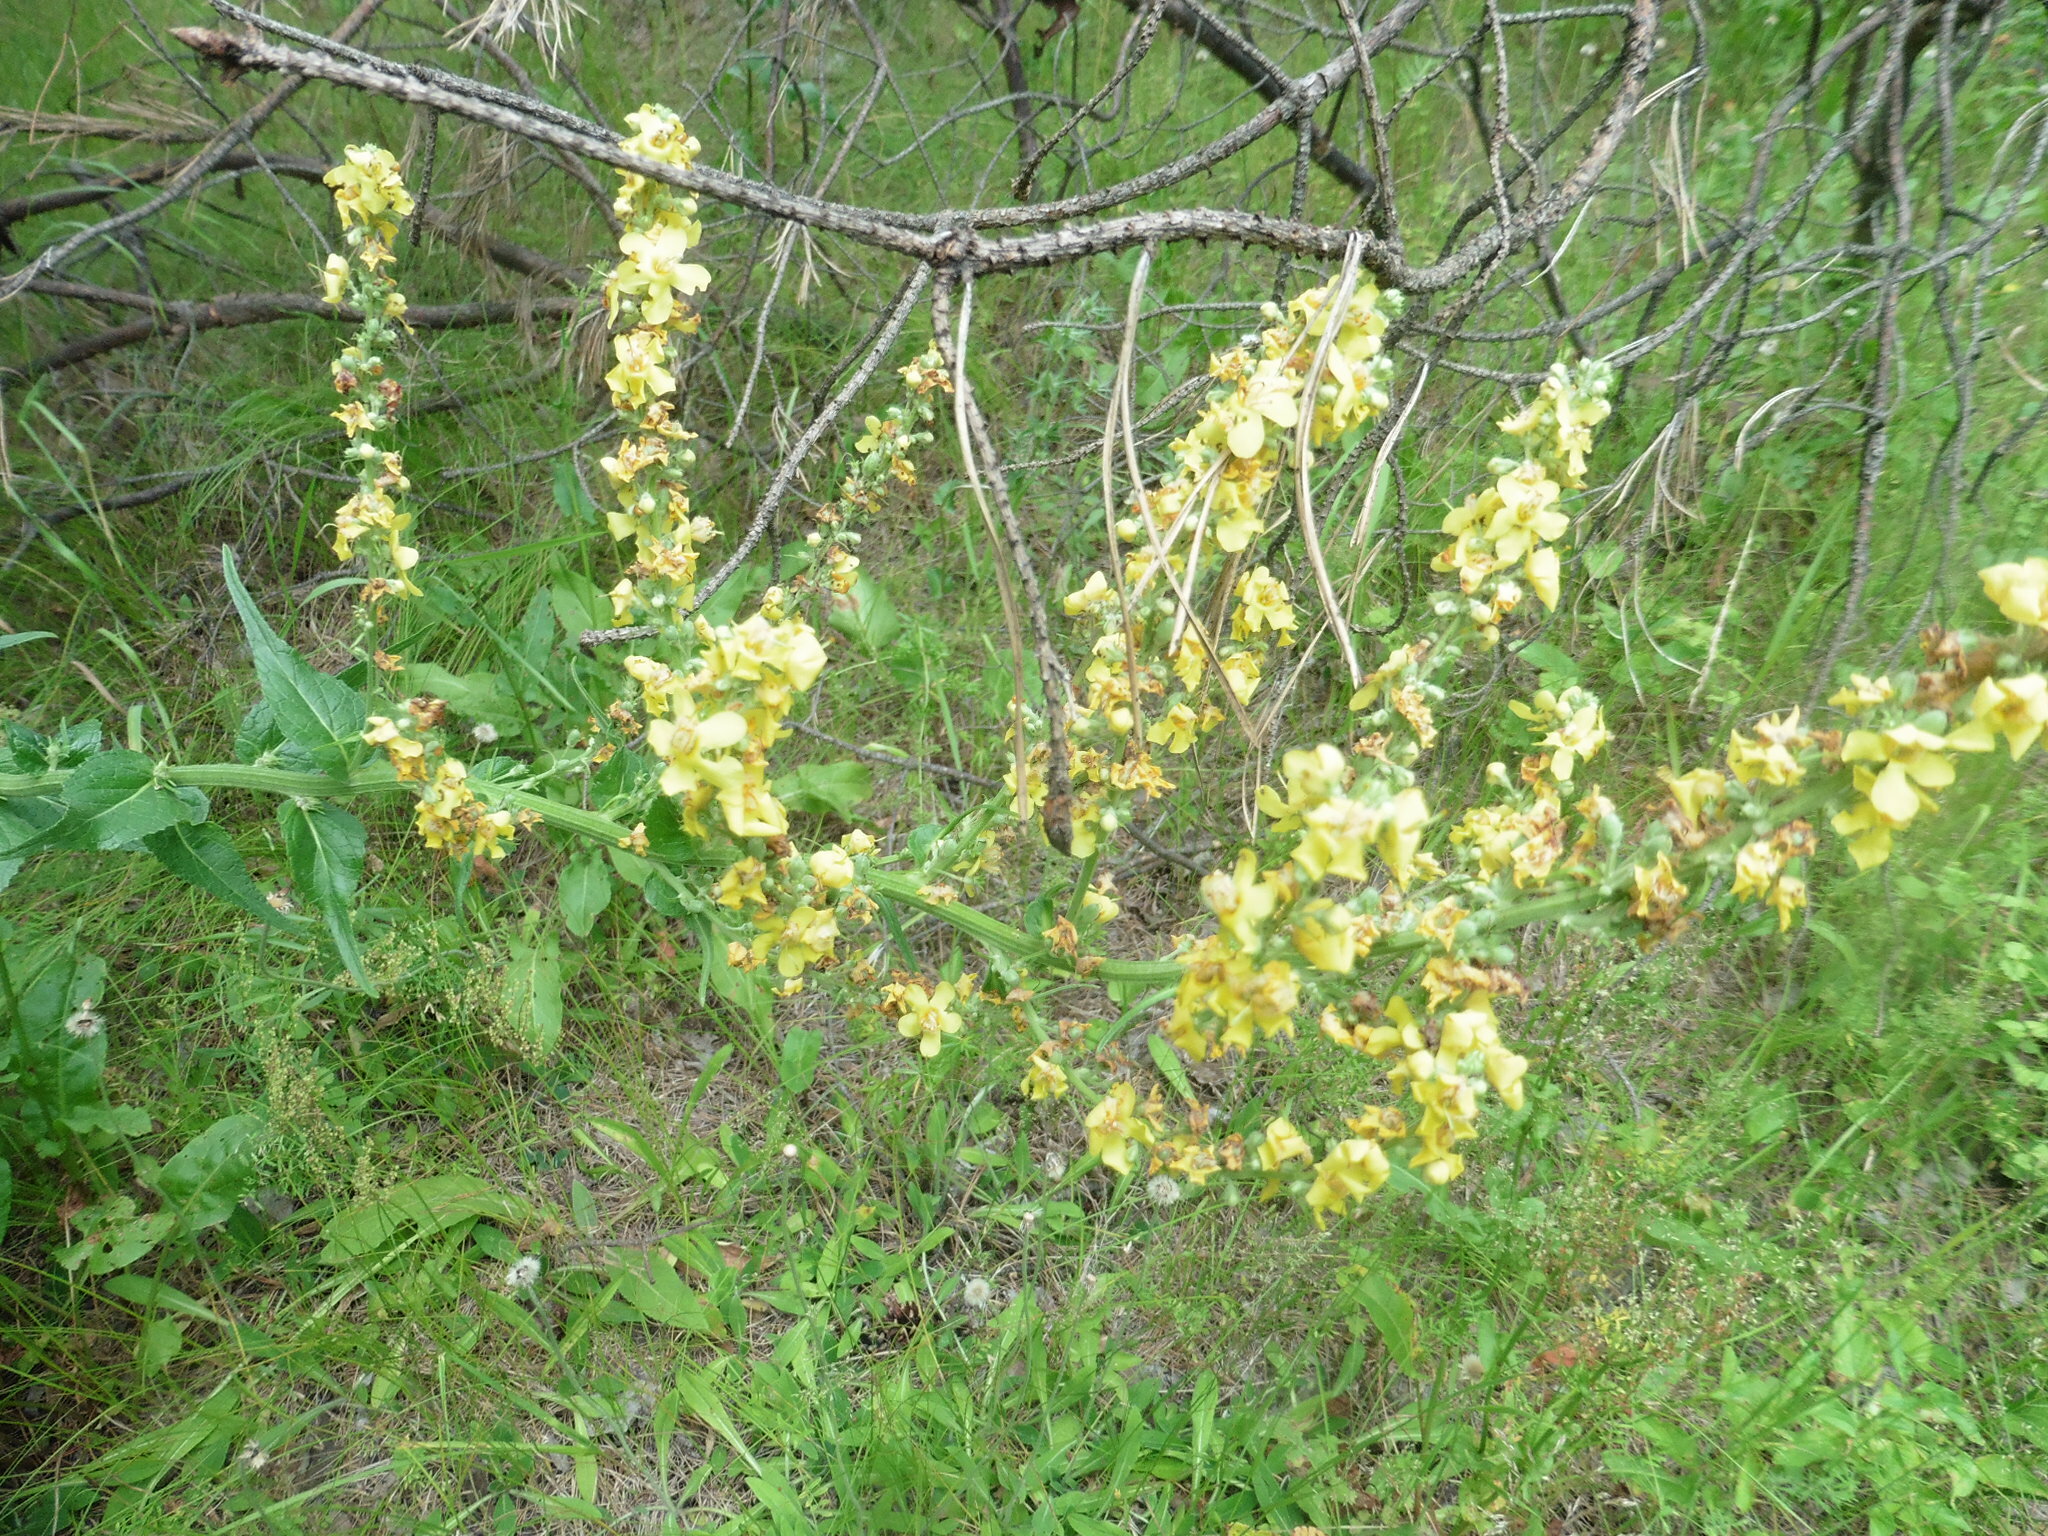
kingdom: Plantae
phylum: Tracheophyta
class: Magnoliopsida
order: Lamiales
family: Scrophulariaceae
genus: Verbascum
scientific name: Verbascum lychnitis
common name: White mullein
